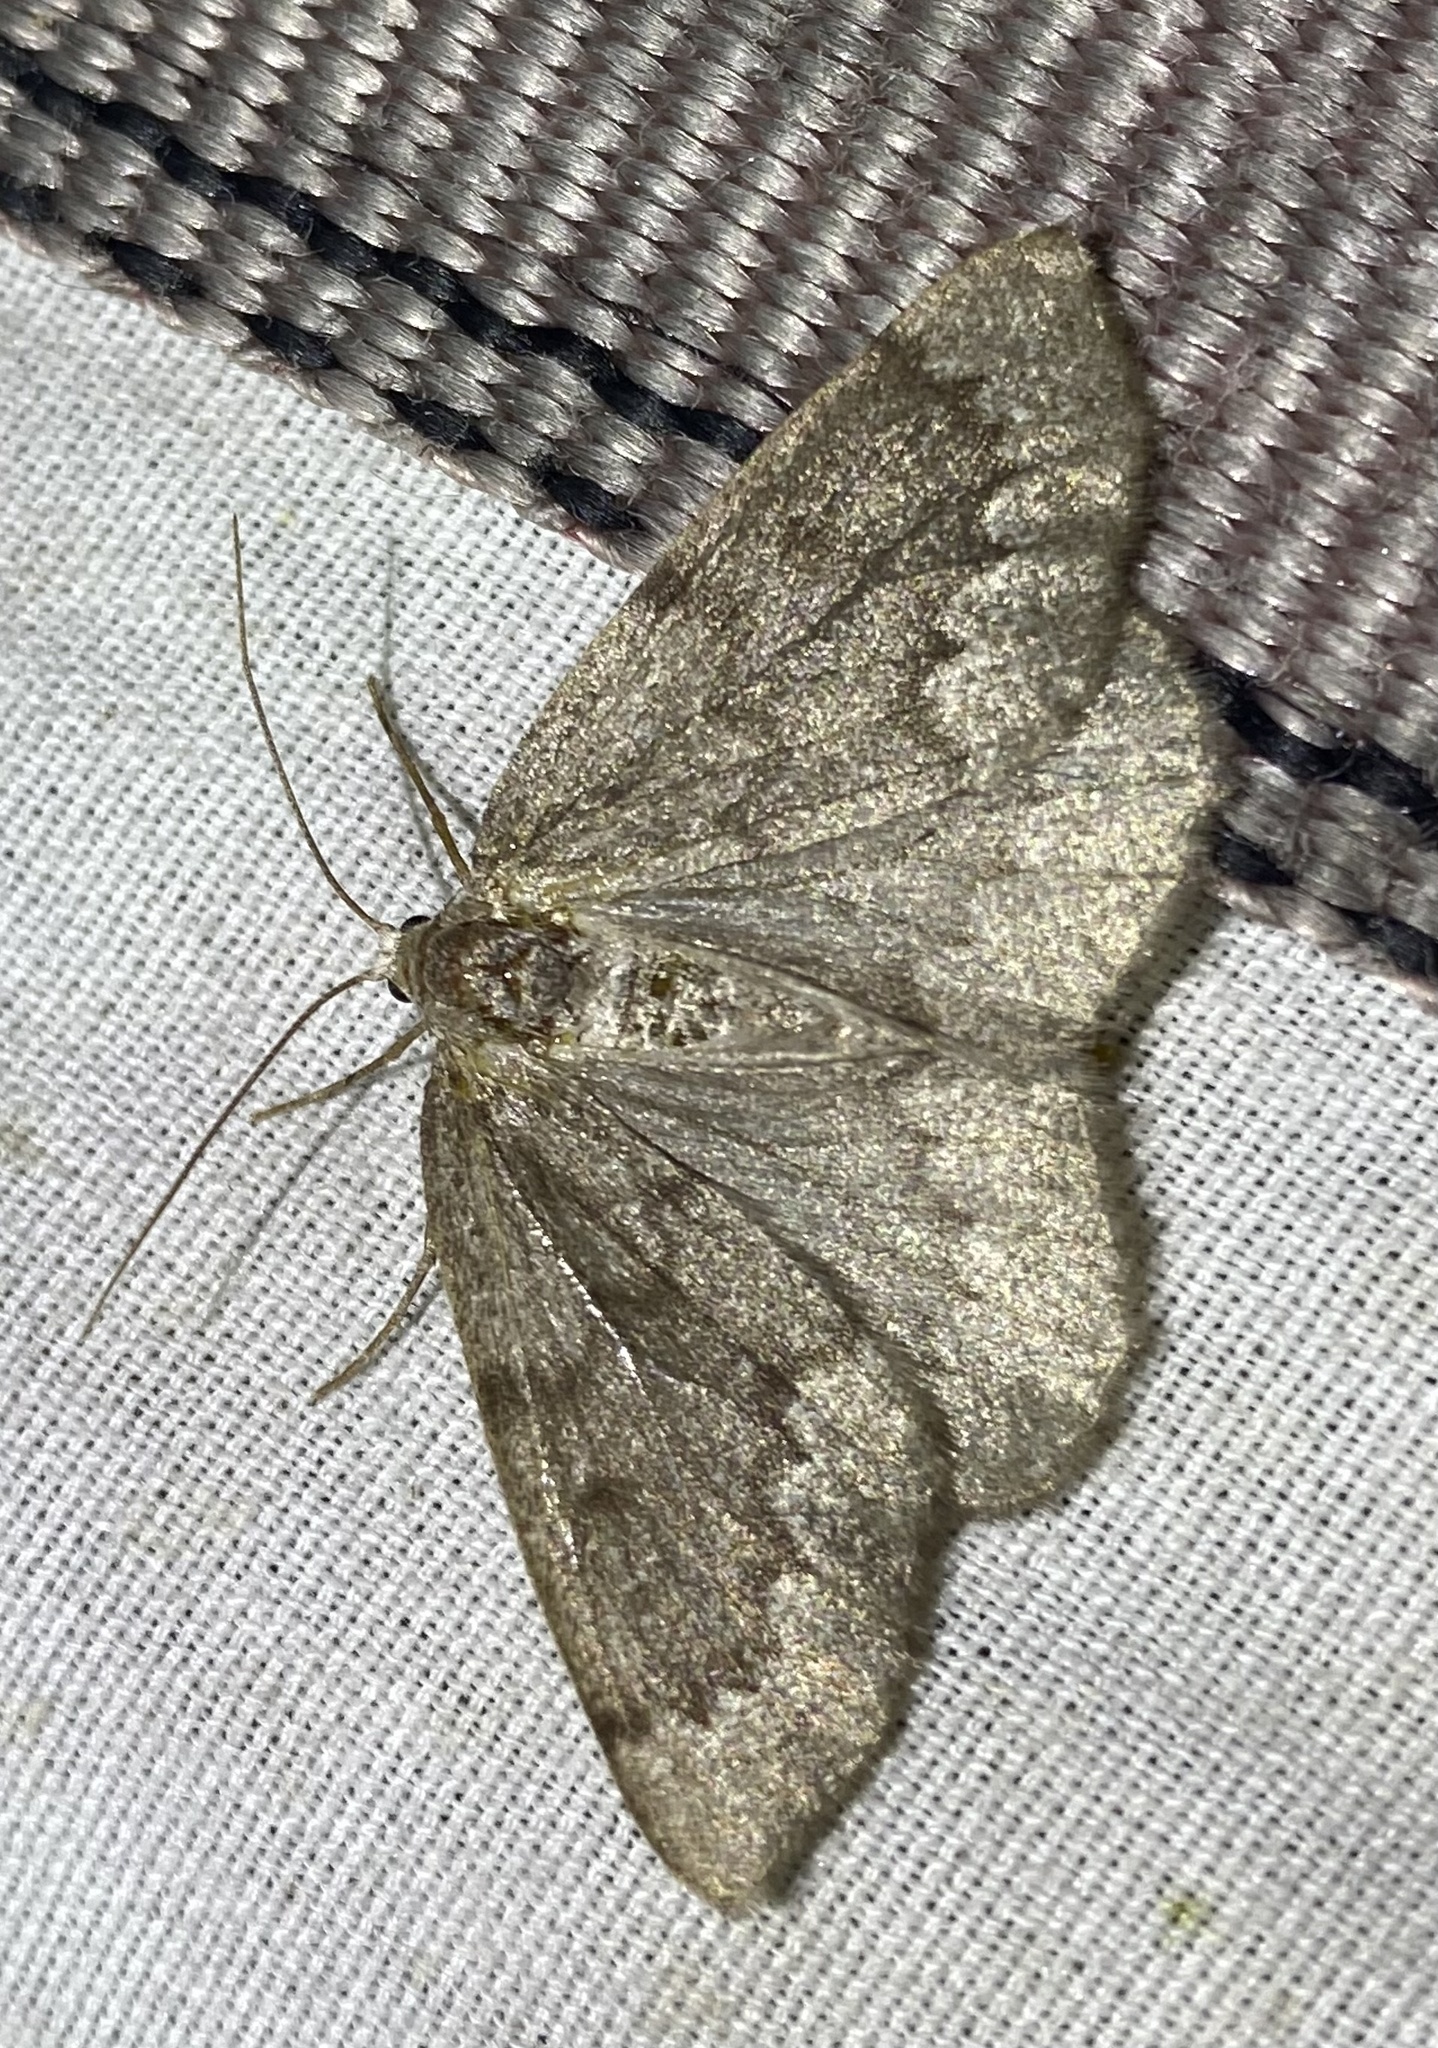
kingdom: Animalia
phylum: Arthropoda
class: Insecta
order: Lepidoptera
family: Geometridae
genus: Nepytia
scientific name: Nepytia semiclusaria
